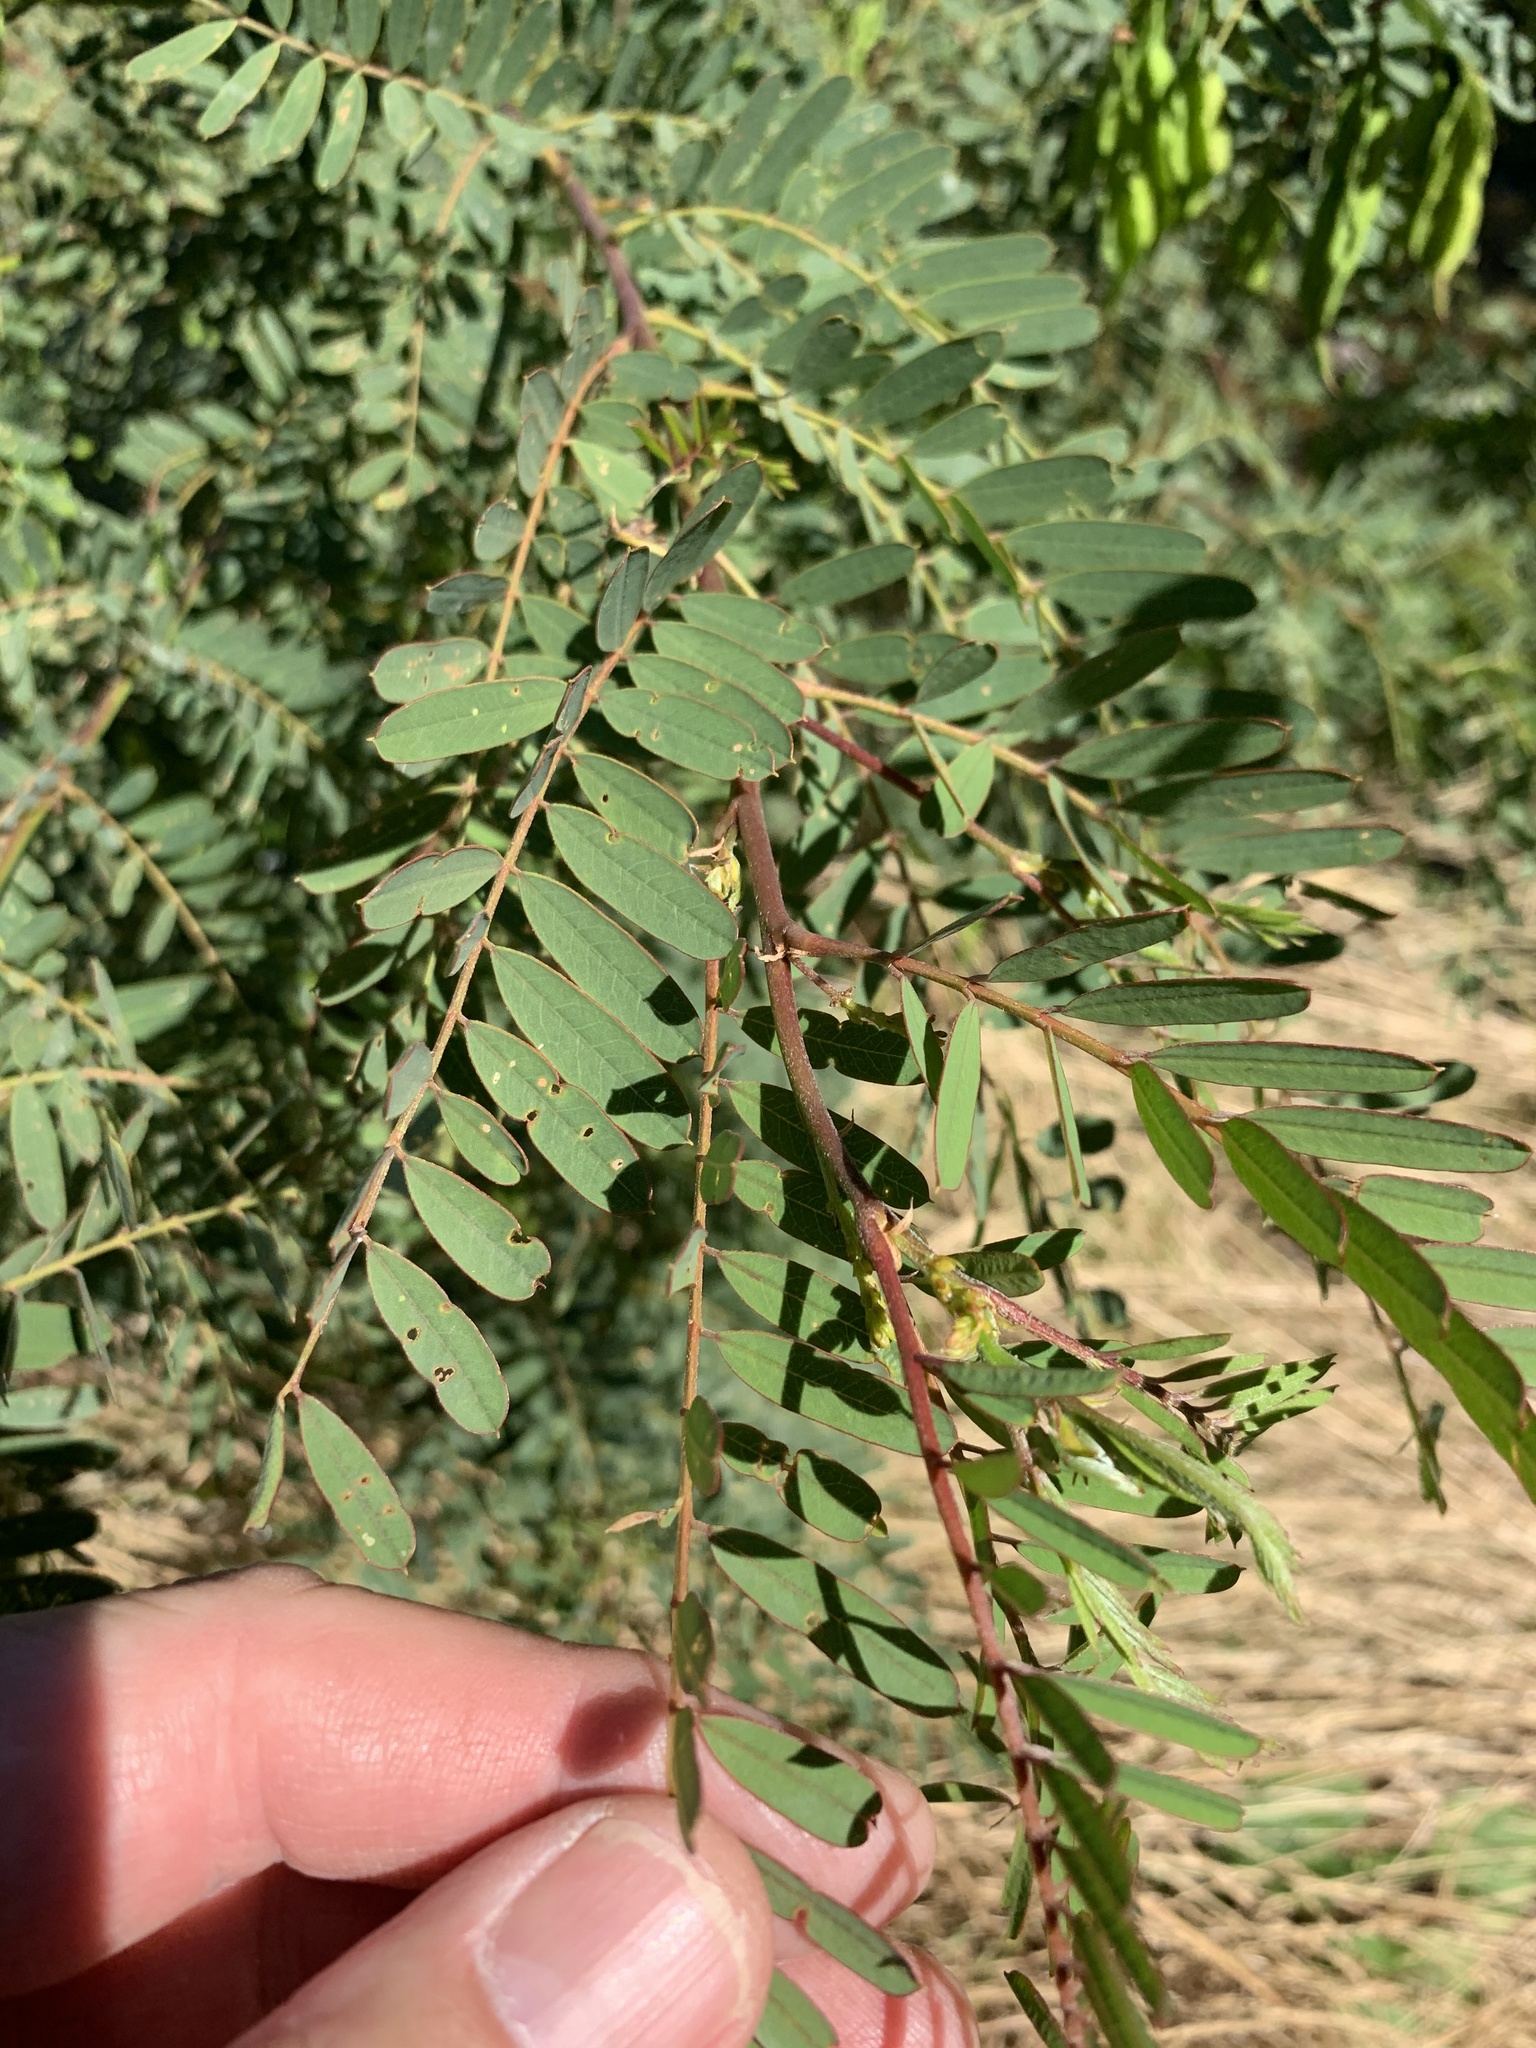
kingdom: Plantae
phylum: Tracheophyta
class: Magnoliopsida
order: Fabales
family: Fabaceae
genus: Sesbania
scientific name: Sesbania punicea
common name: Rattlebox
